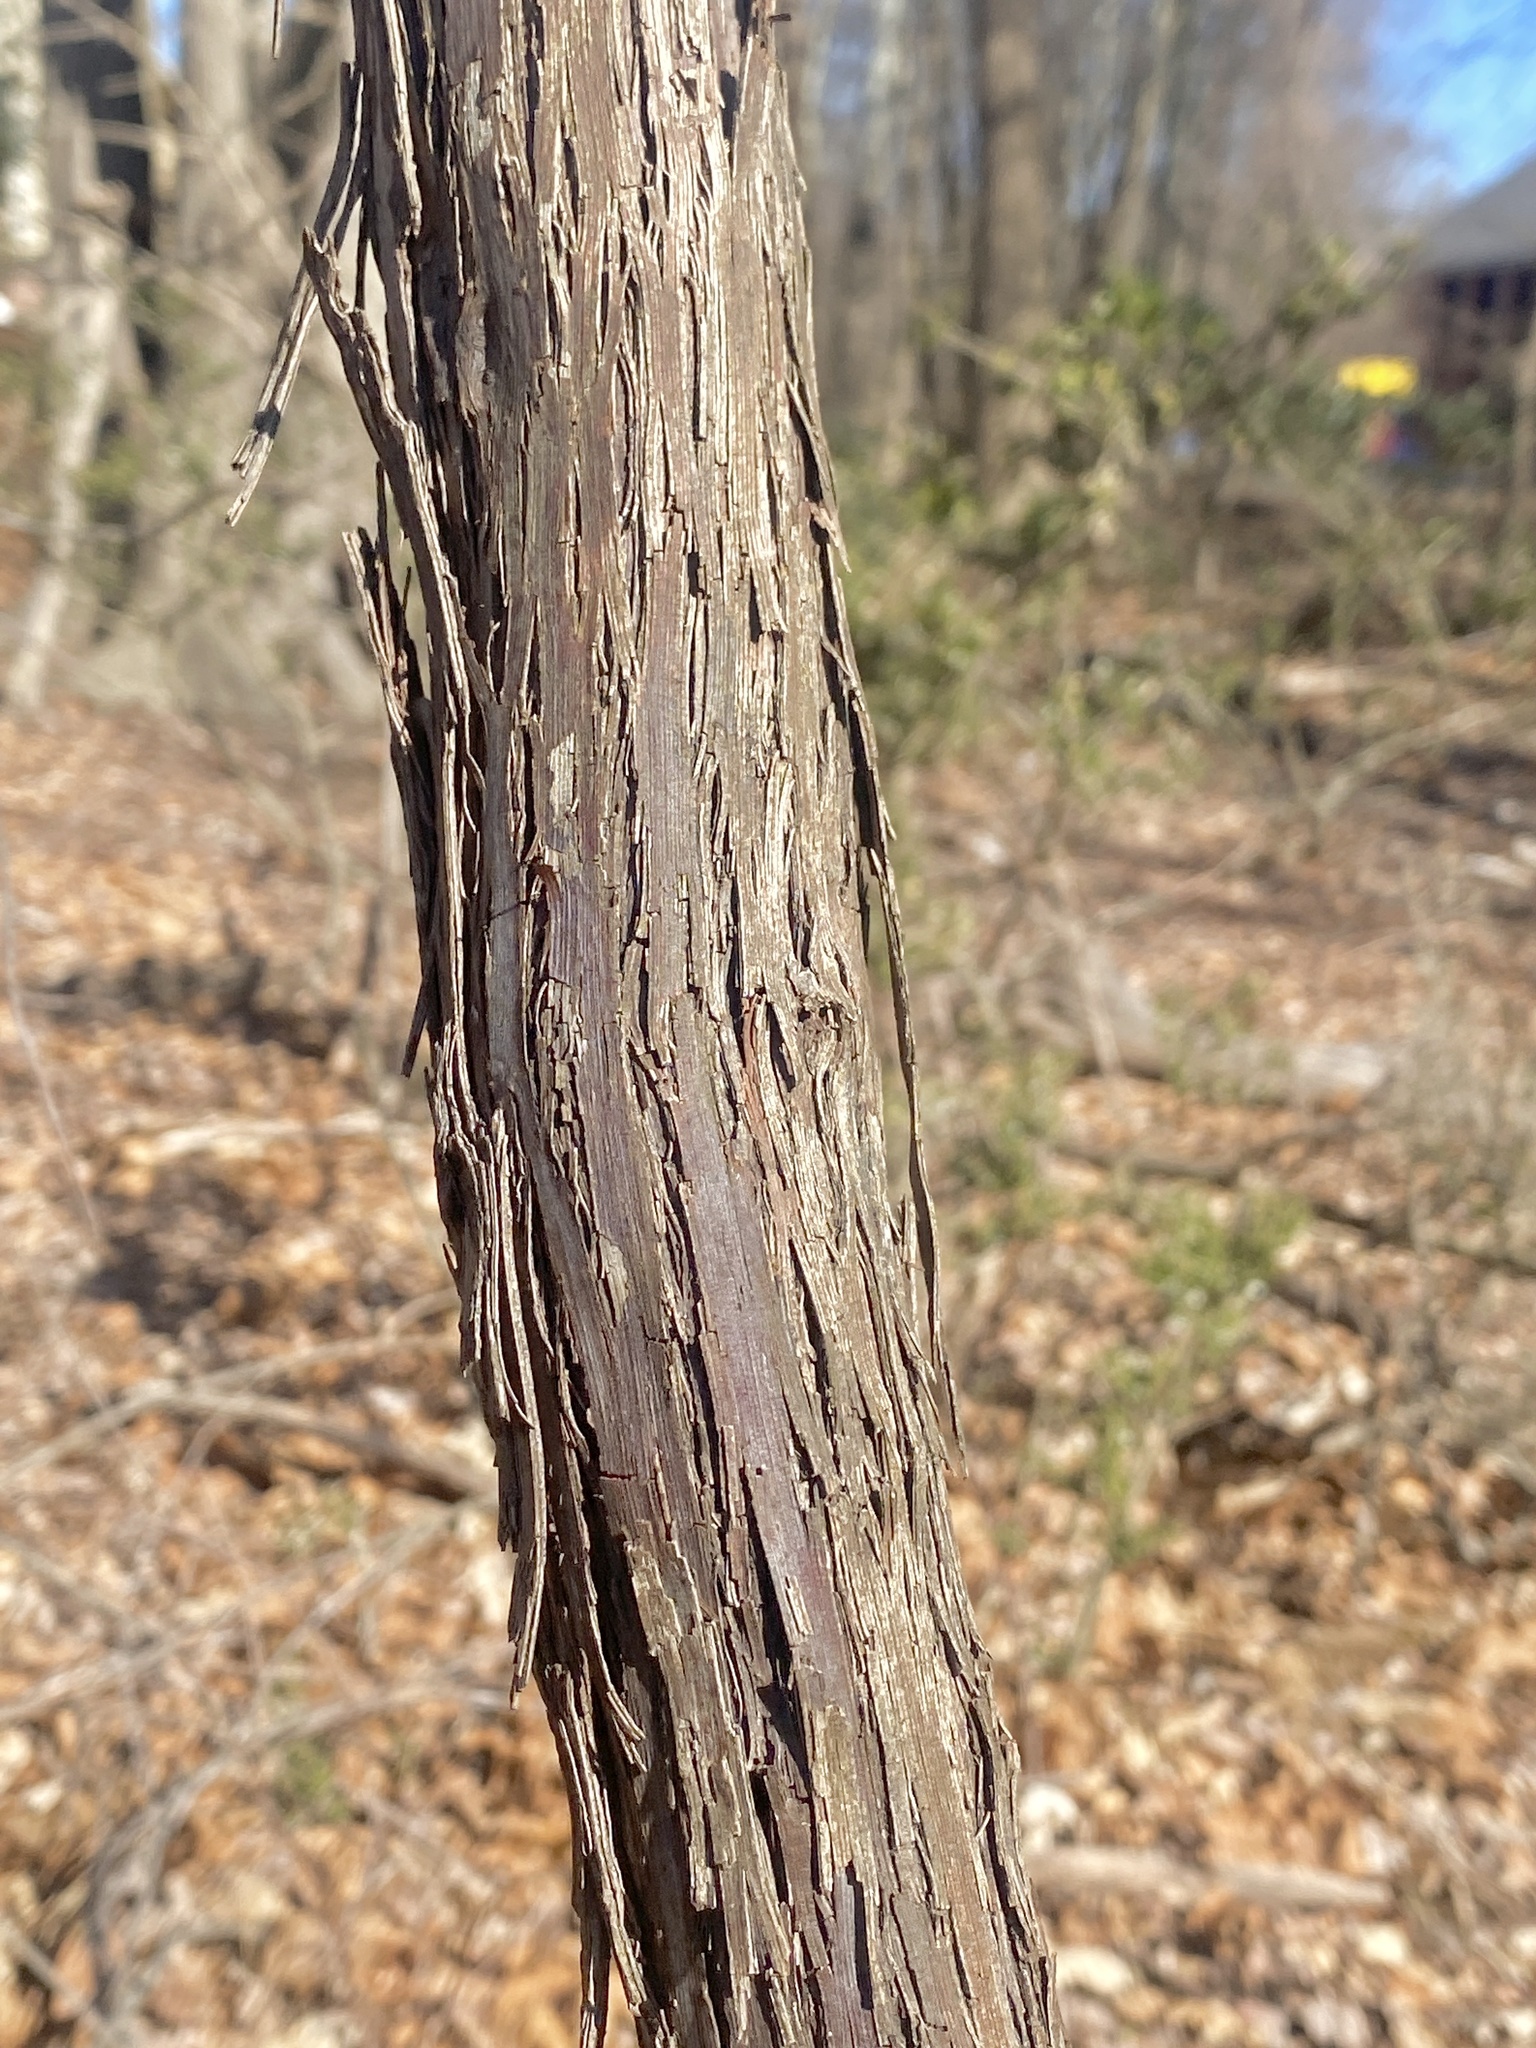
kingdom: Plantae
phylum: Tracheophyta
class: Magnoliopsida
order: Vitales
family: Vitaceae
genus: Vitis
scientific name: Vitis
